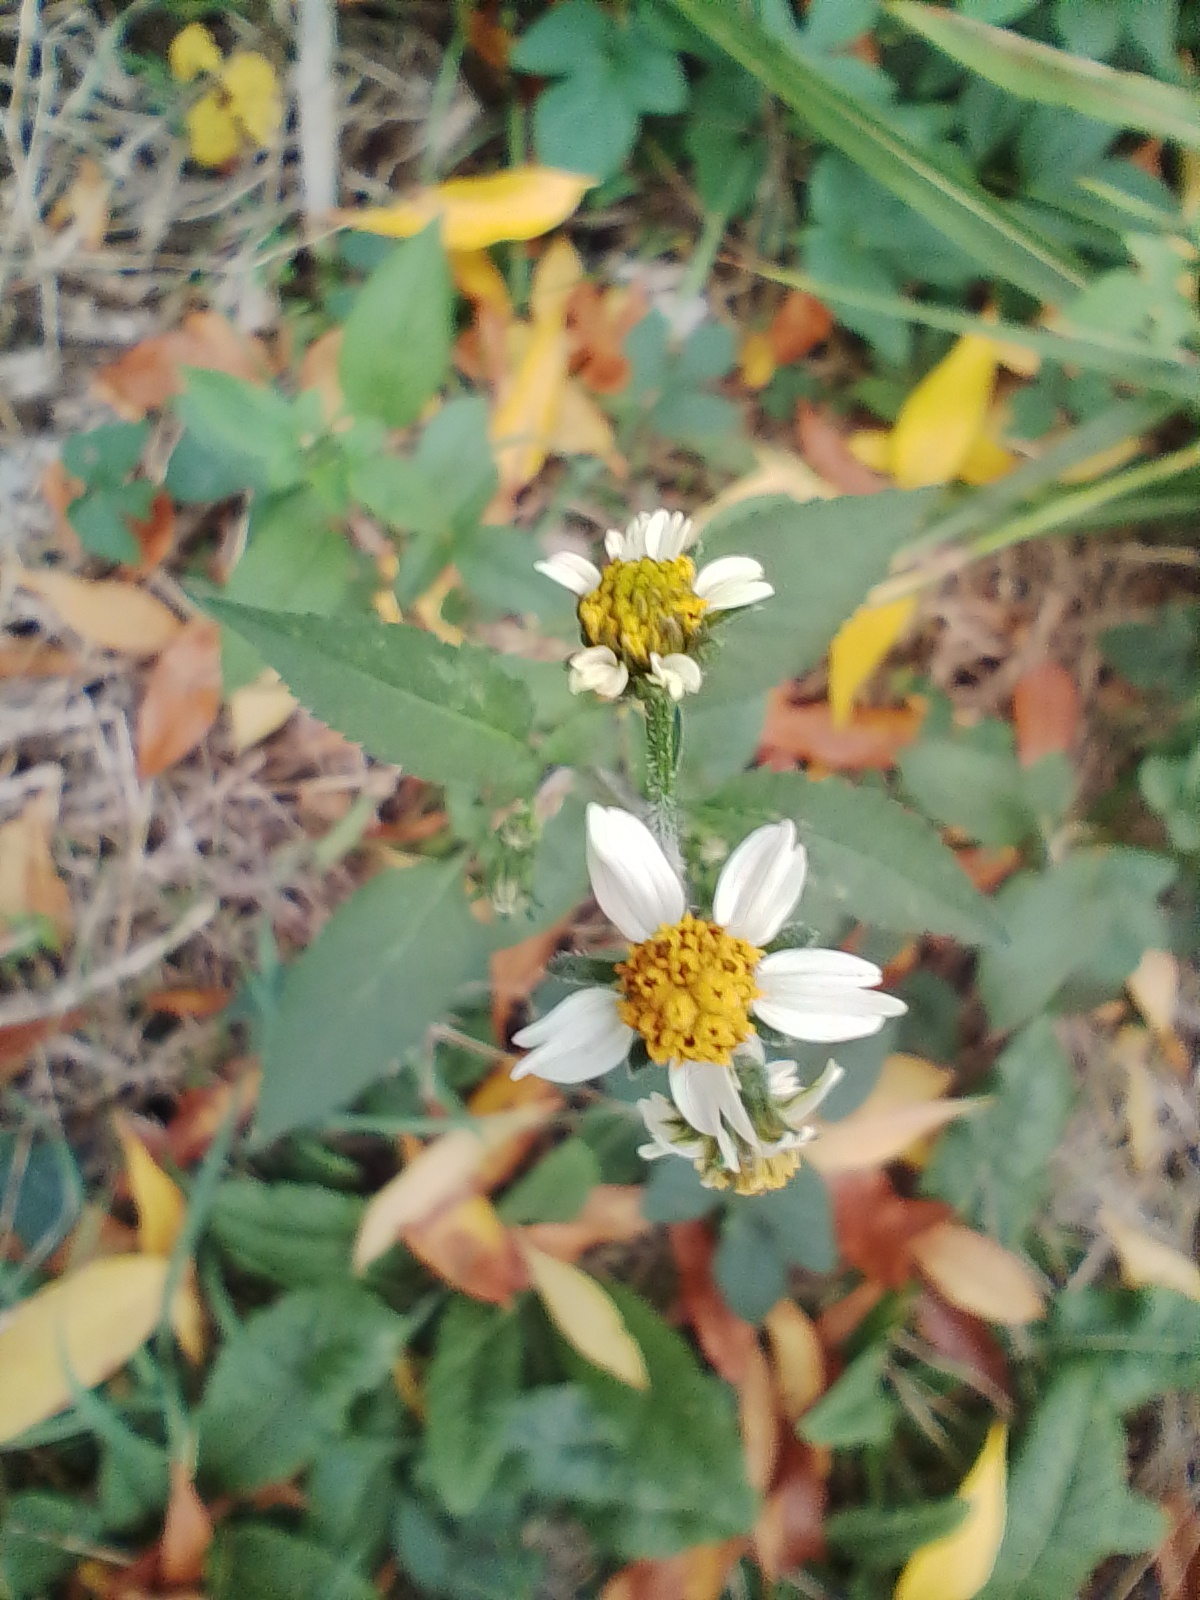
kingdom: Plantae
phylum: Tracheophyta
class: Magnoliopsida
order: Asterales
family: Asteraceae
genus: Bidens
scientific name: Bidens pilosa
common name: Black-jack
